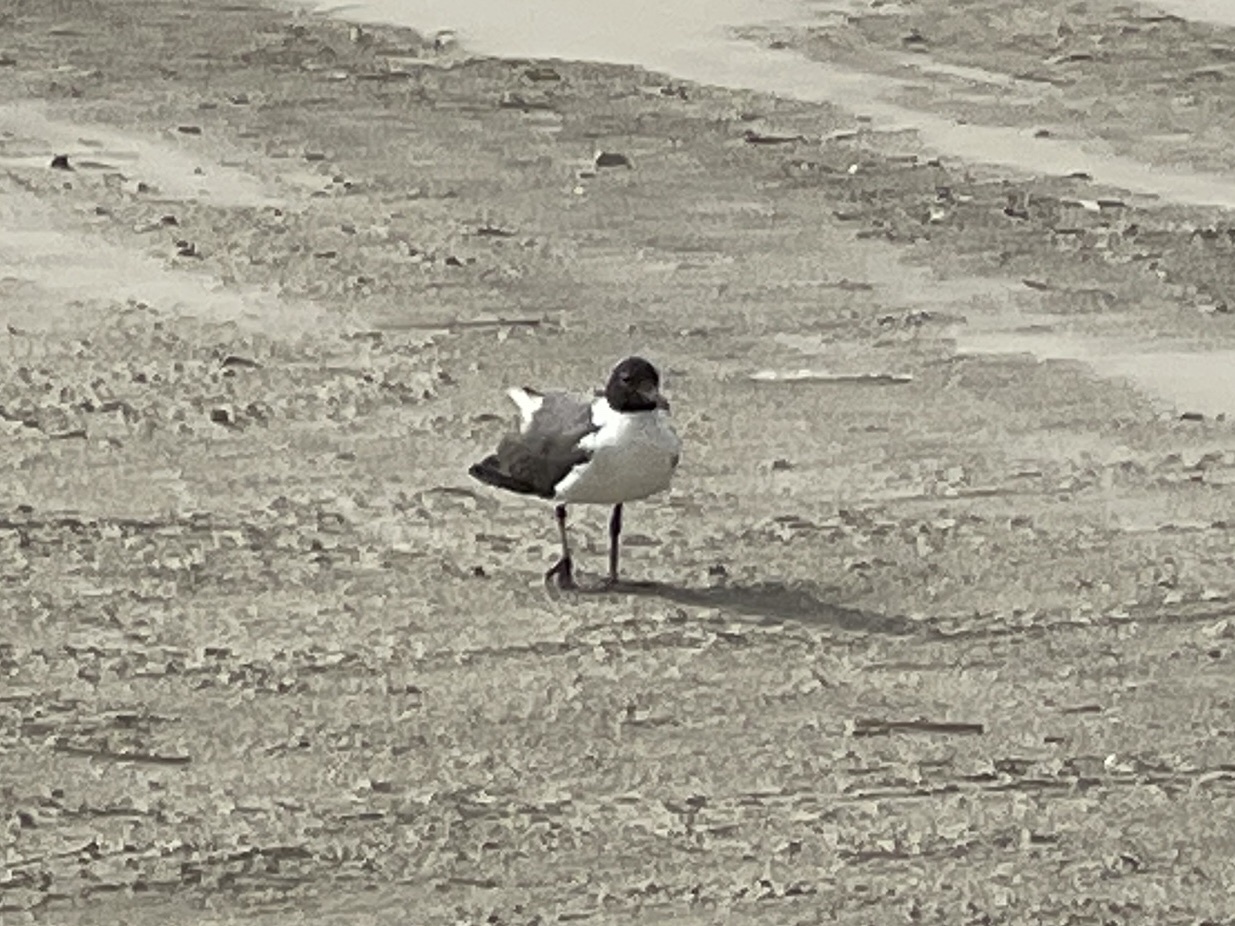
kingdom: Animalia
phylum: Chordata
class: Aves
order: Charadriiformes
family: Laridae
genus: Leucophaeus
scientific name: Leucophaeus atricilla
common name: Laughing gull
